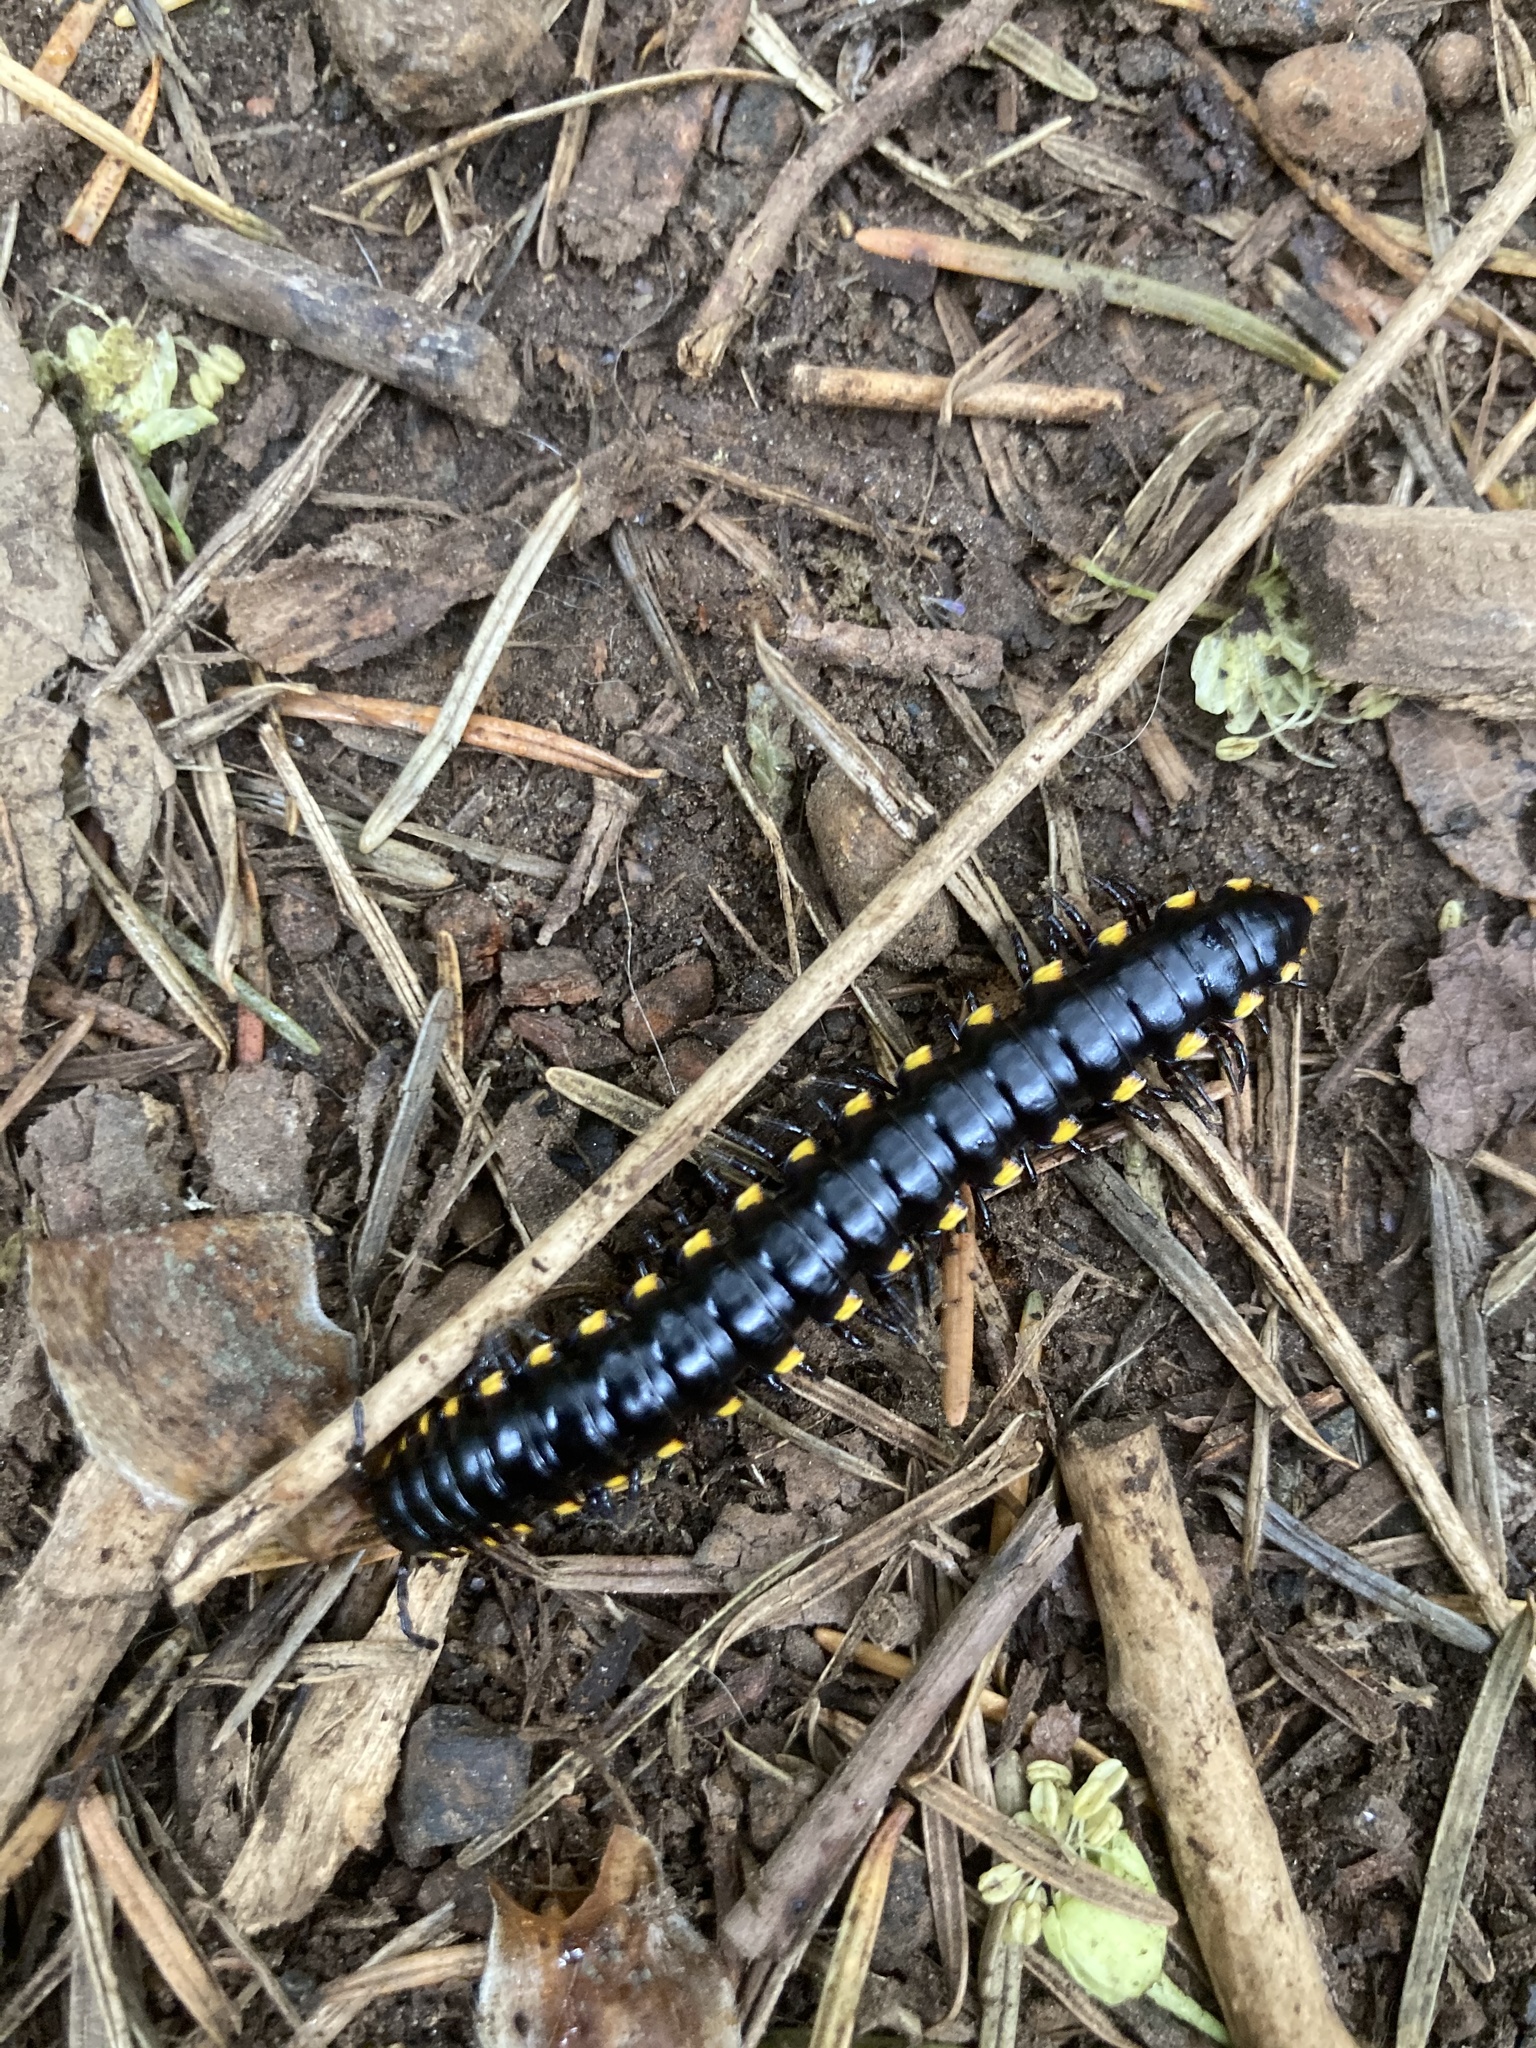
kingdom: Animalia
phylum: Arthropoda
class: Diplopoda
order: Polydesmida
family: Xystodesmidae
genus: Harpaphe
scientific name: Harpaphe haydeniana
